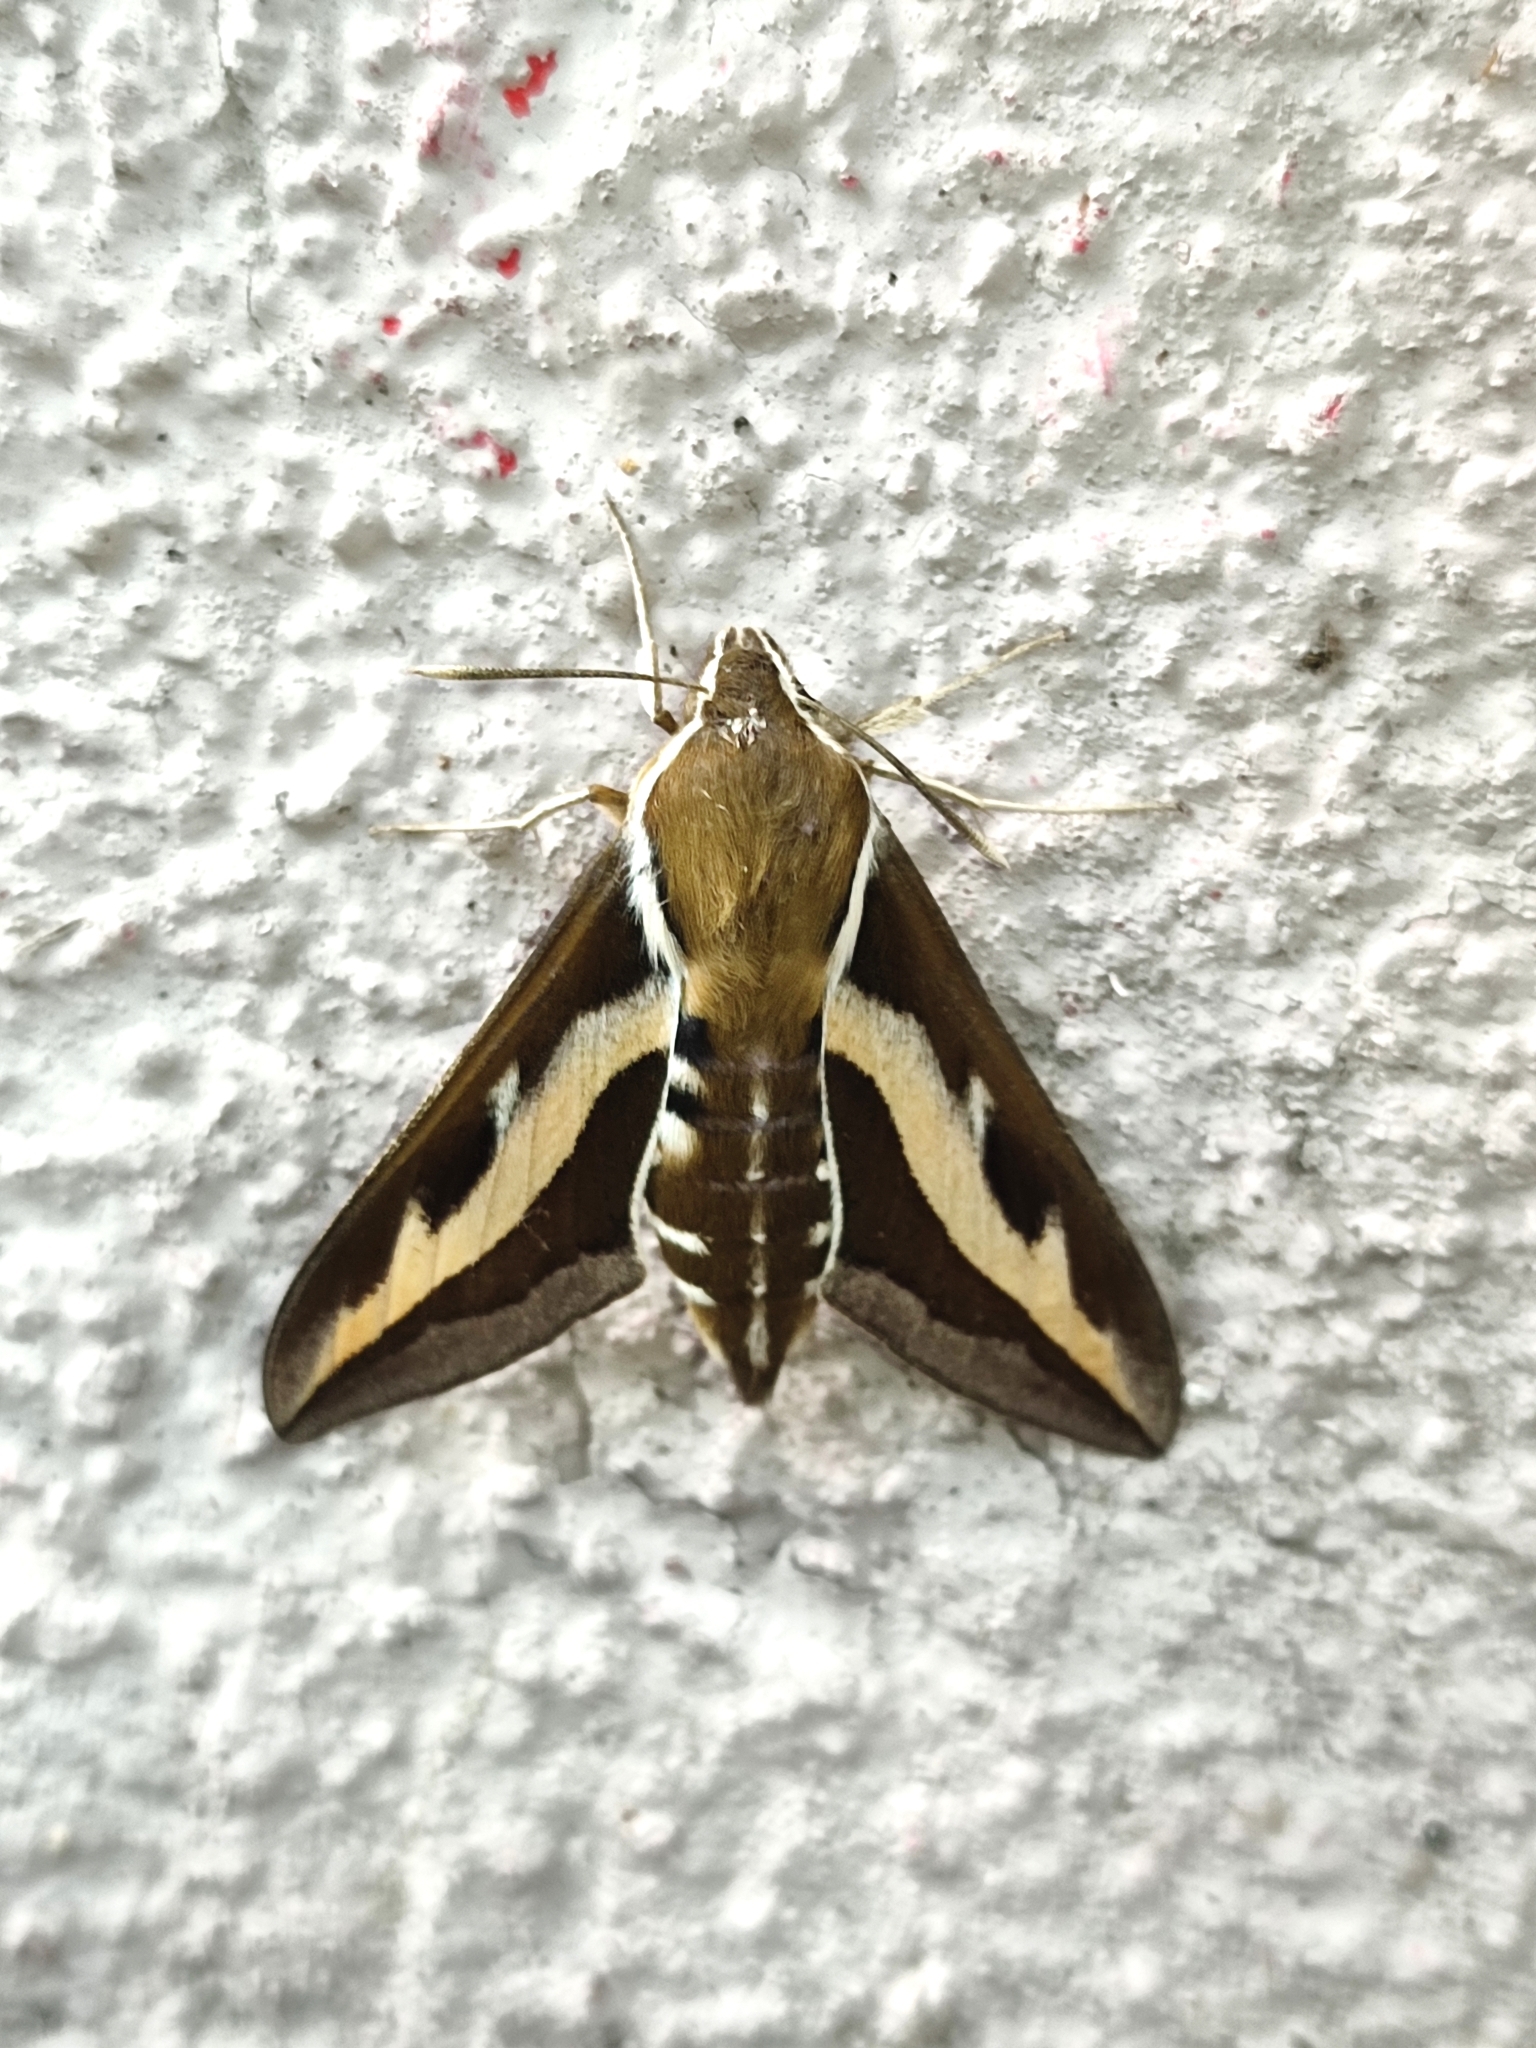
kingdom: Animalia
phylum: Arthropoda
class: Insecta
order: Lepidoptera
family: Sphingidae
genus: Hyles
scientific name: Hyles gallii
